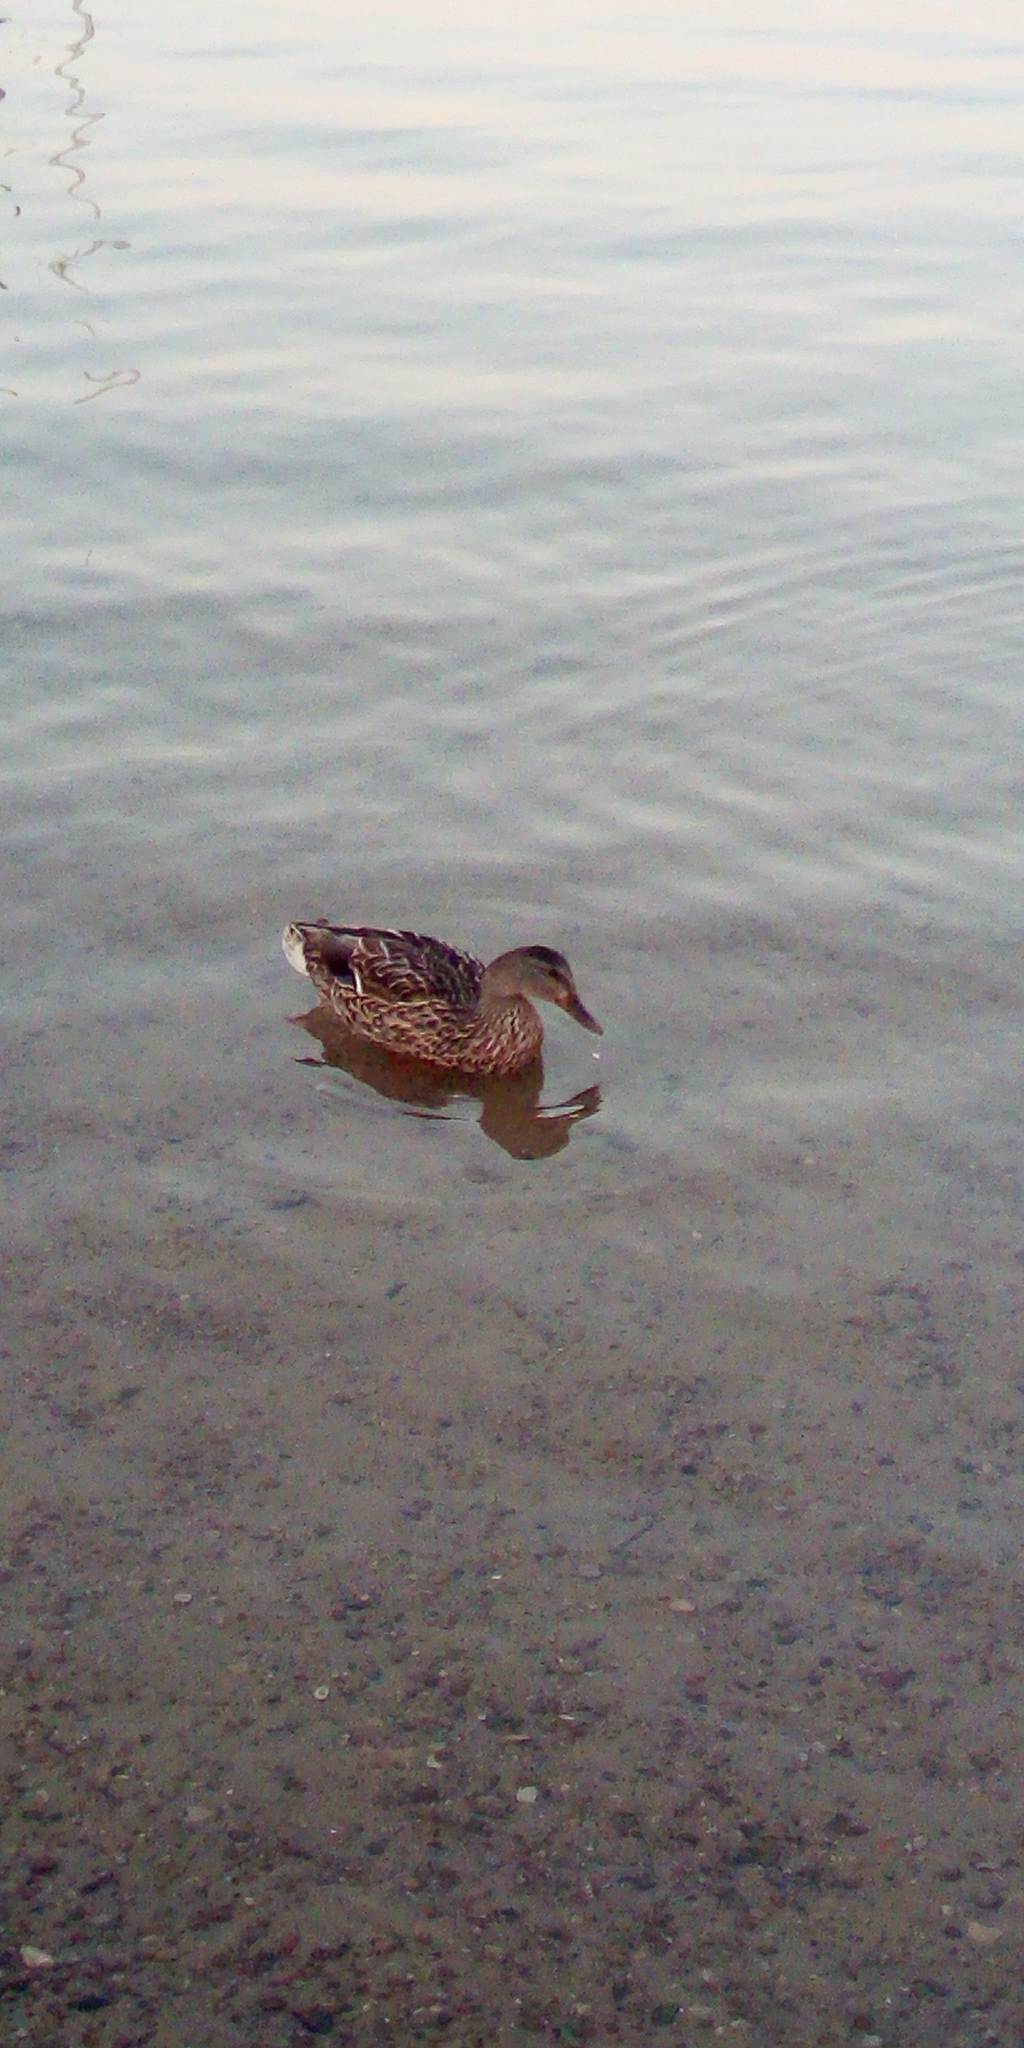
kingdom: Animalia
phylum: Chordata
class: Aves
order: Anseriformes
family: Anatidae
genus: Anas
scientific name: Anas platyrhynchos
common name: Mallard
